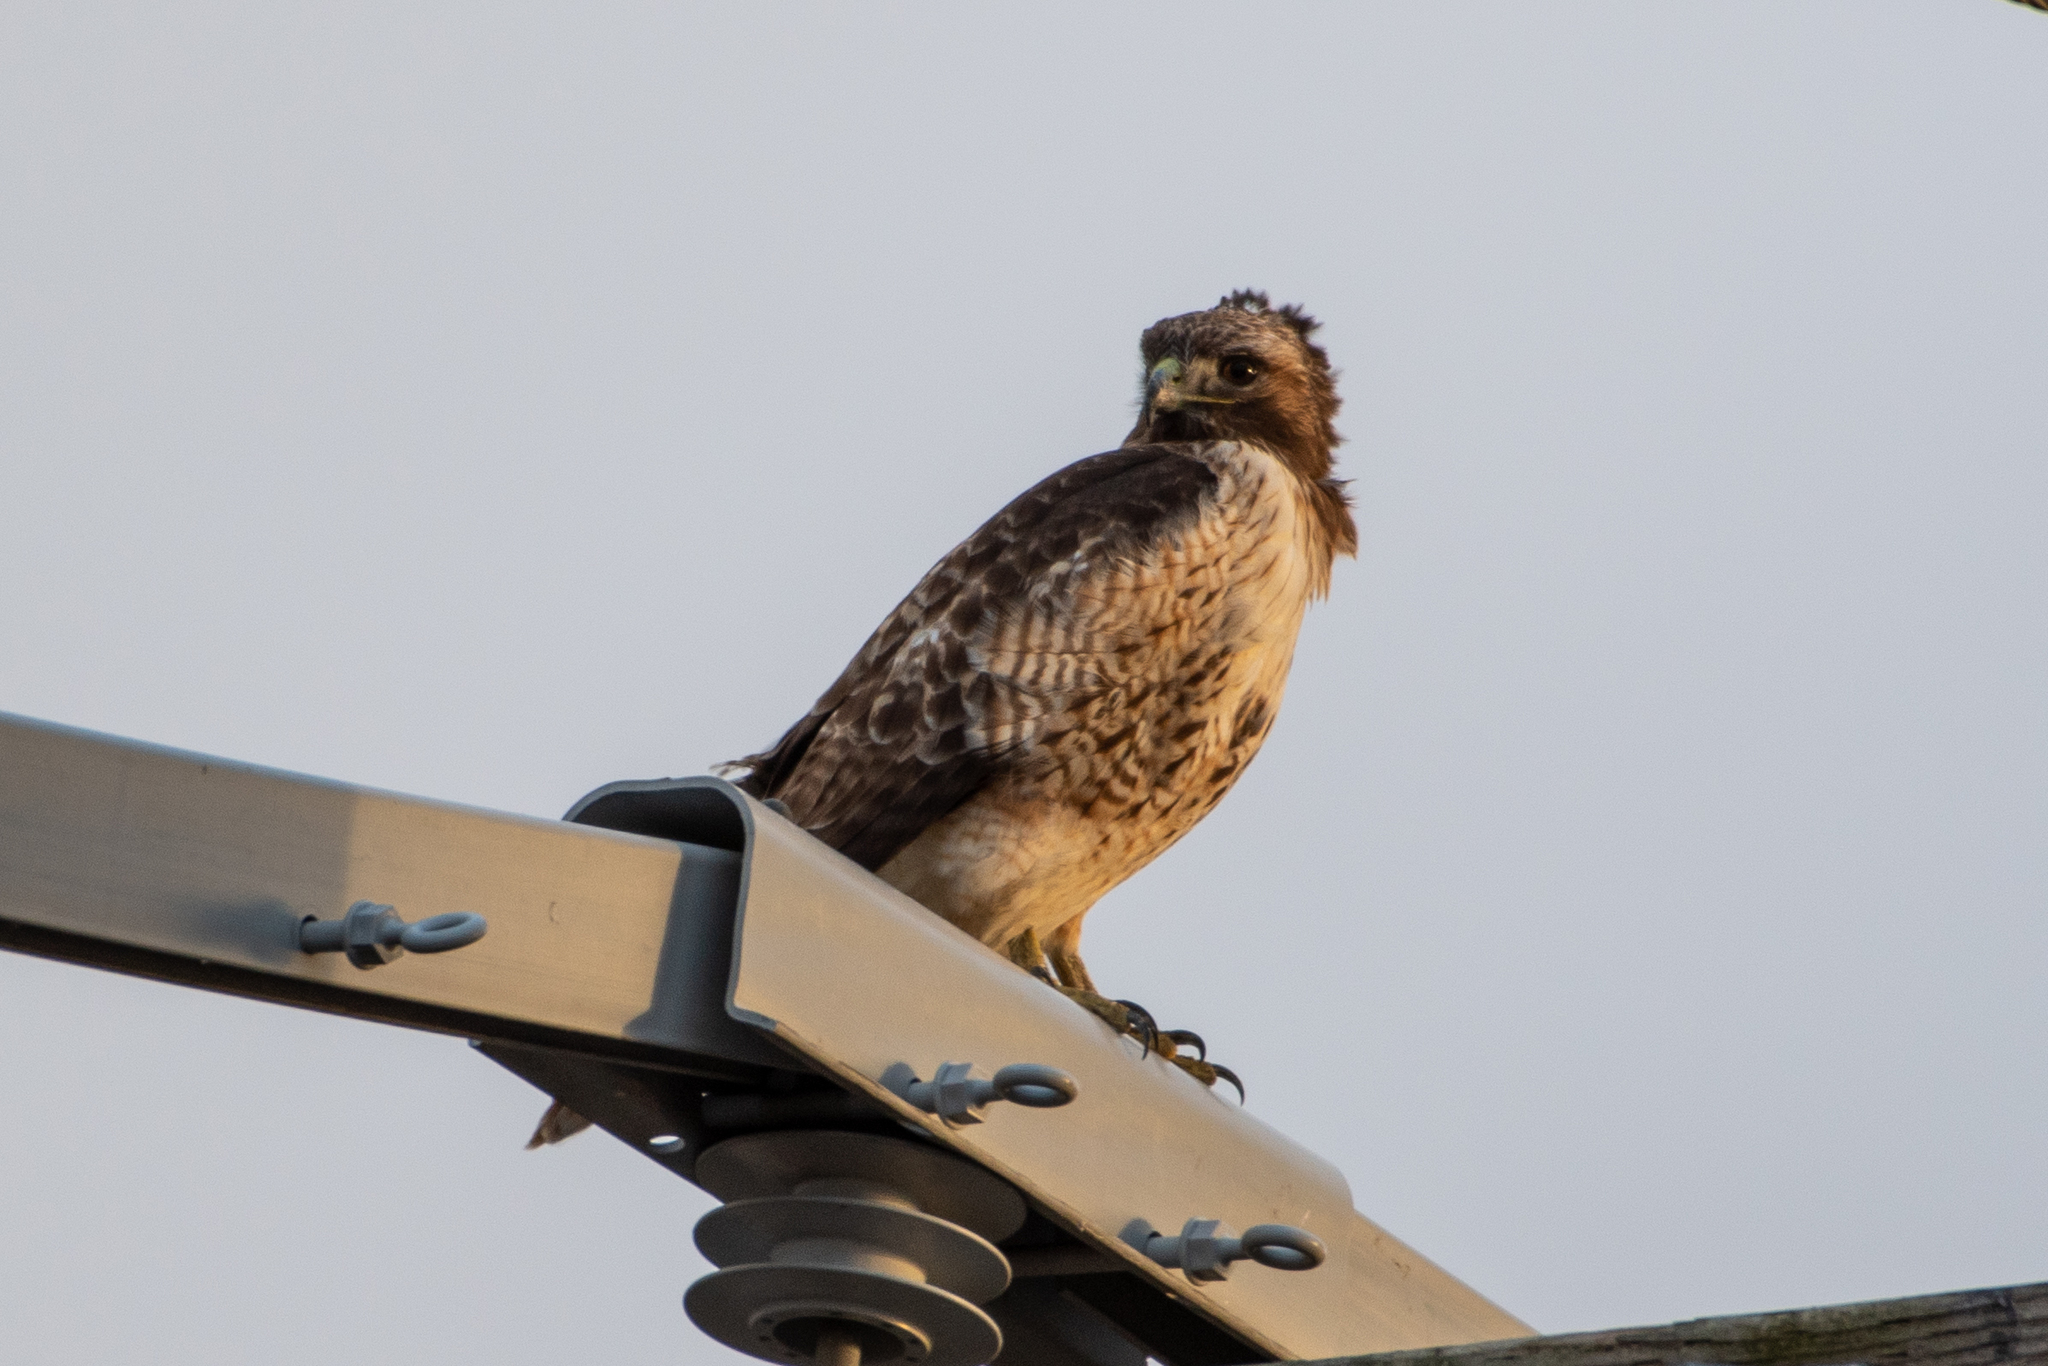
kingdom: Animalia
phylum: Chordata
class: Aves
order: Accipitriformes
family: Accipitridae
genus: Buteo
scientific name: Buteo jamaicensis
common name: Red-tailed hawk
